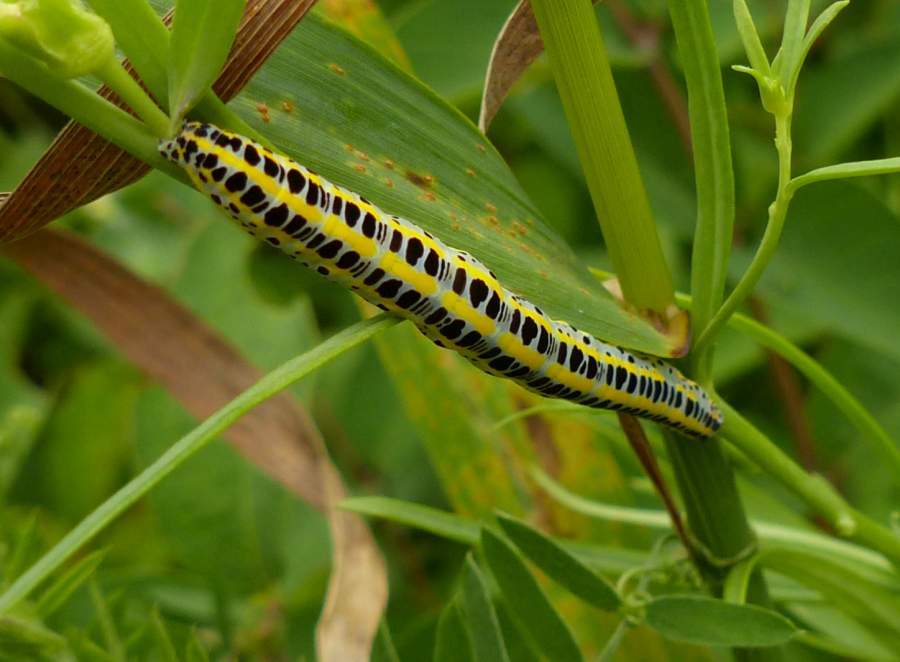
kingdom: Animalia
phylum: Arthropoda
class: Insecta
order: Lepidoptera
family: Noctuidae
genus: Calophasia
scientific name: Calophasia lunula
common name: Toadflax brocade
